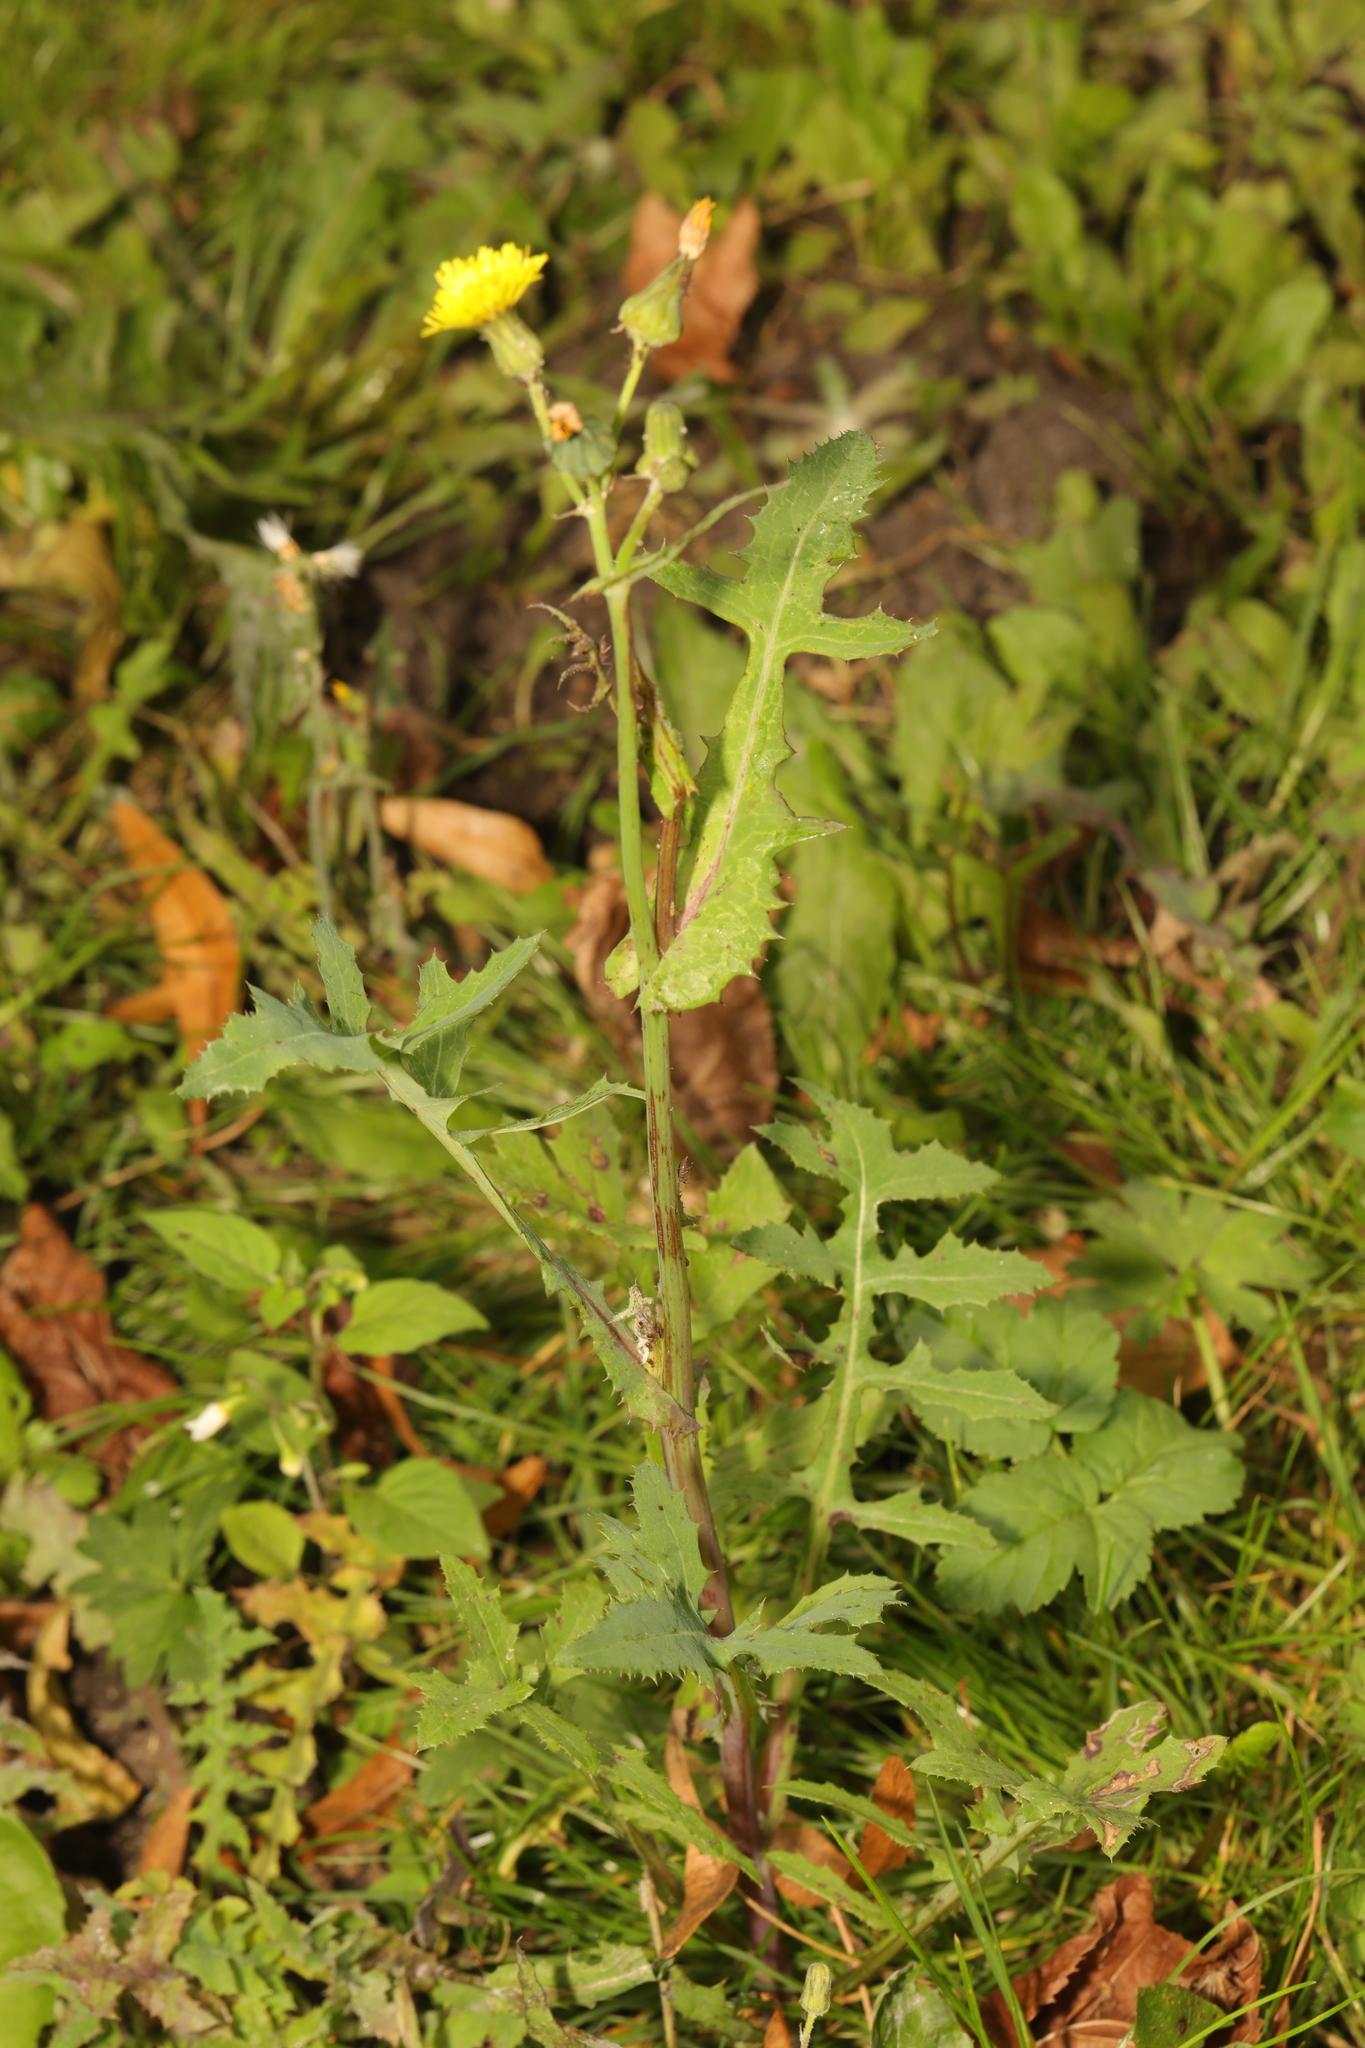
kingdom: Plantae
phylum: Tracheophyta
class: Magnoliopsida
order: Asterales
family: Asteraceae
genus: Sonchus
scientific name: Sonchus oleraceus
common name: Common sowthistle
